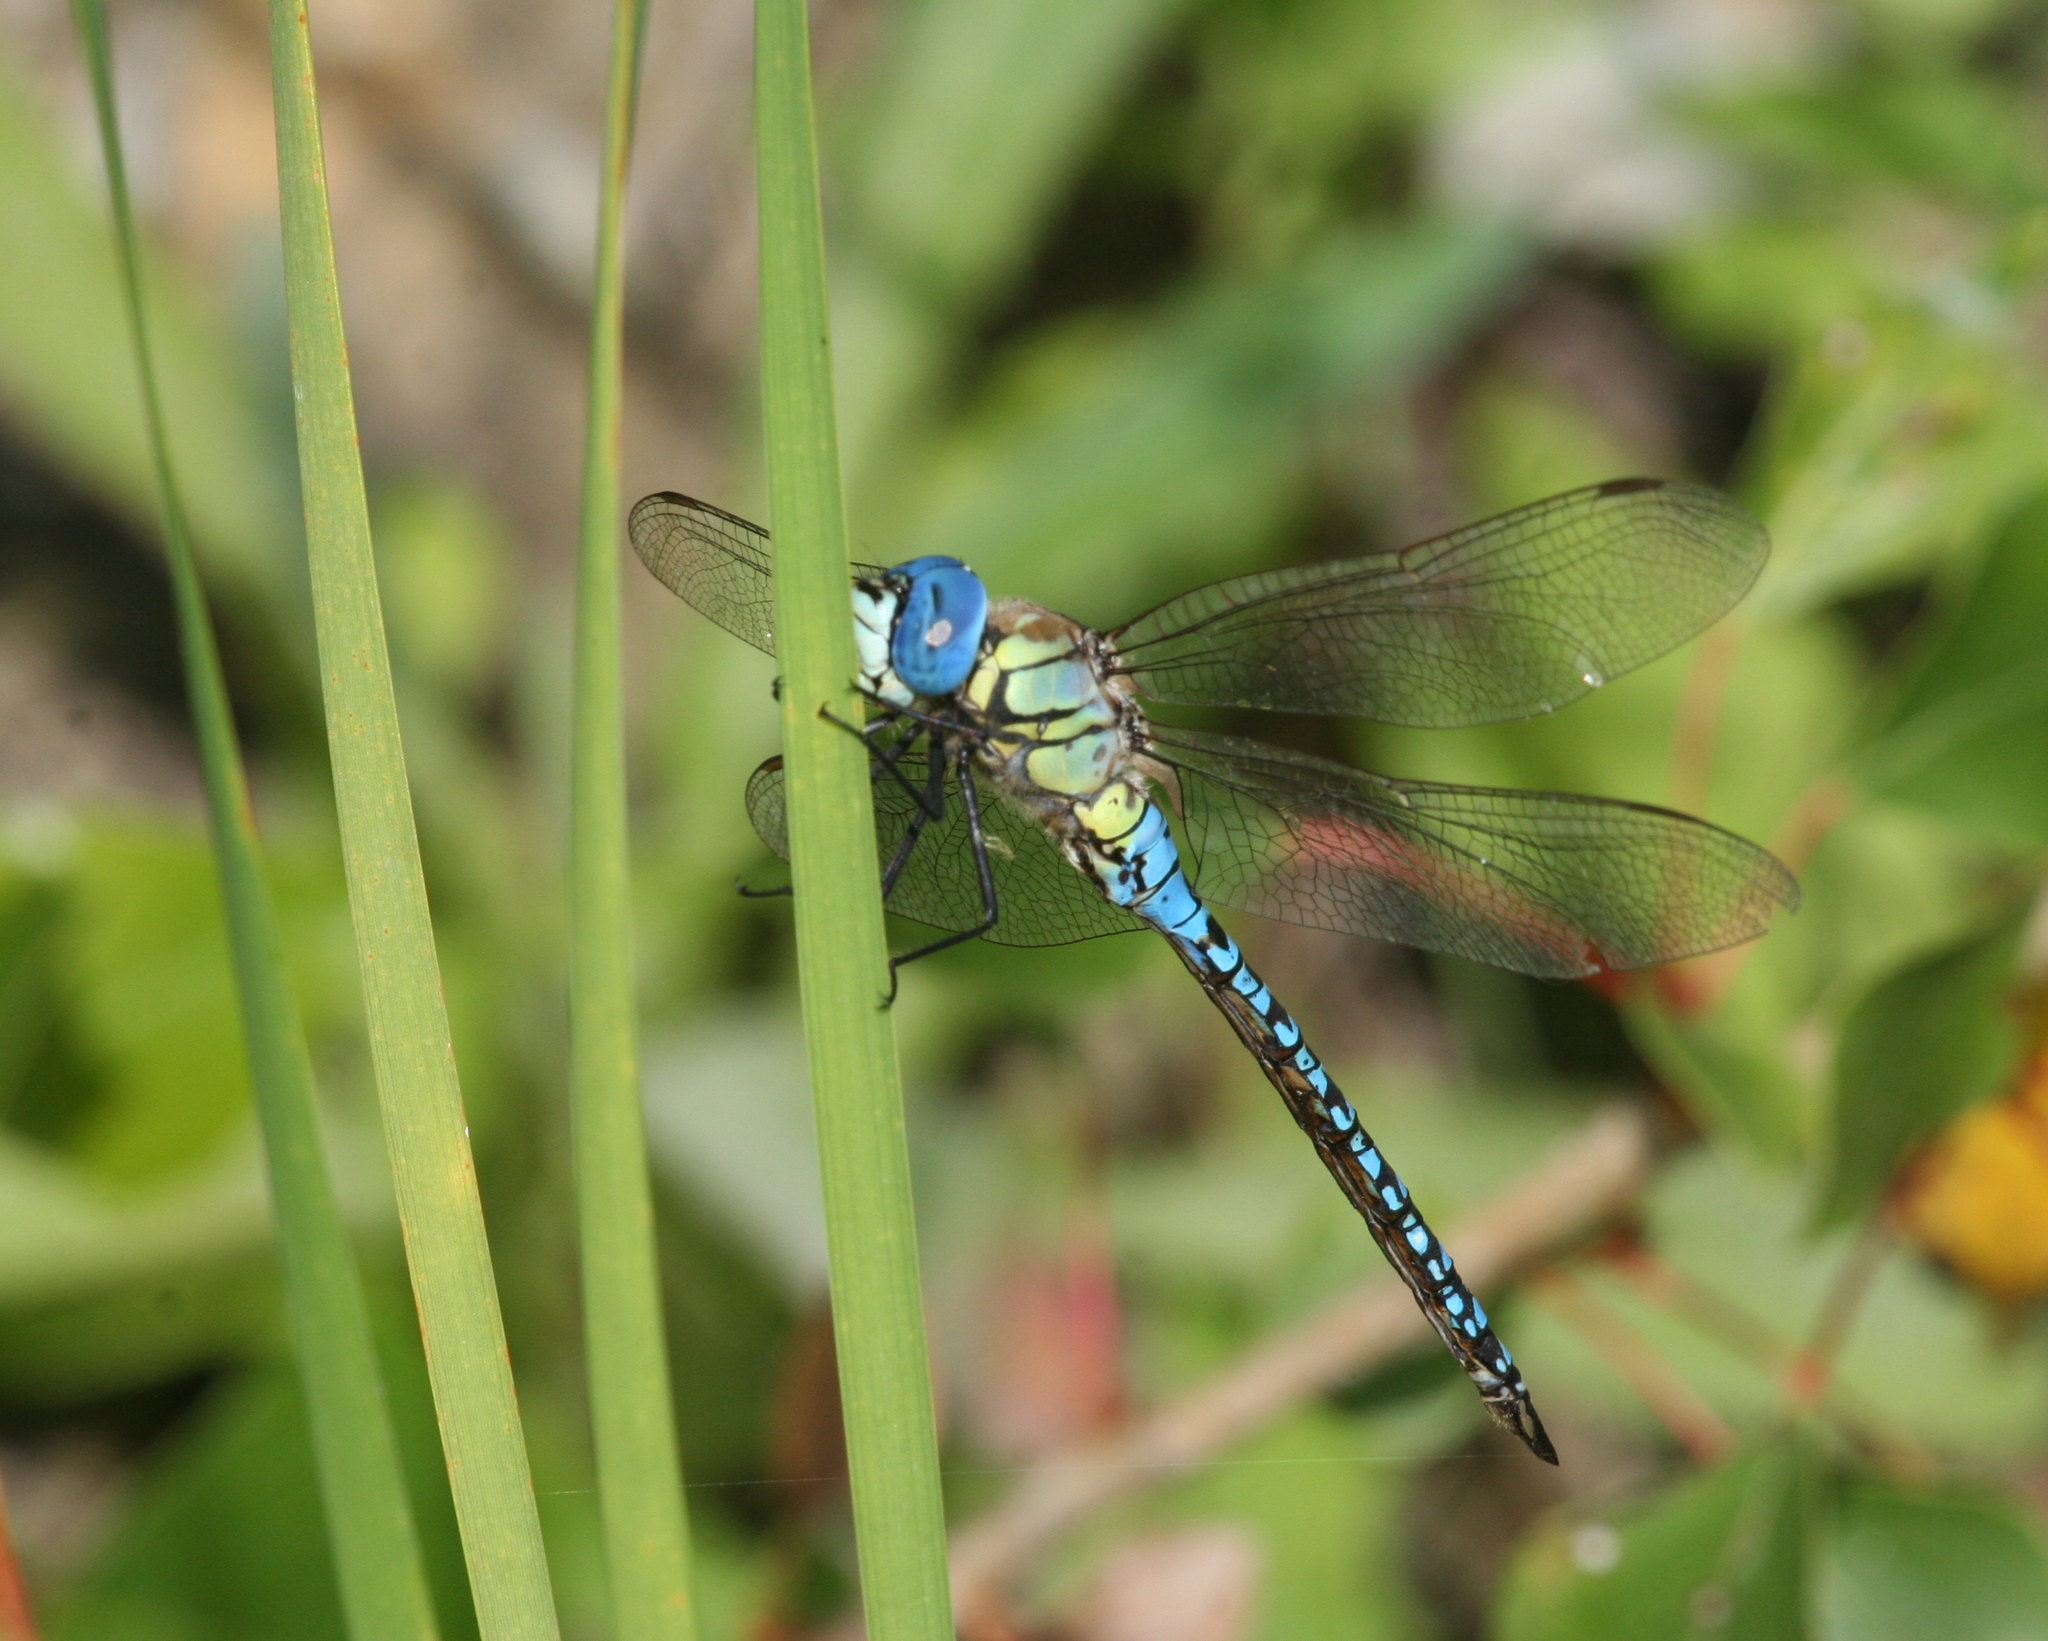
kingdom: Animalia
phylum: Arthropoda
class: Insecta
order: Odonata
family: Aeshnidae
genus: Aeshna
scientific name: Aeshna affinis
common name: Southern migrant hawker
